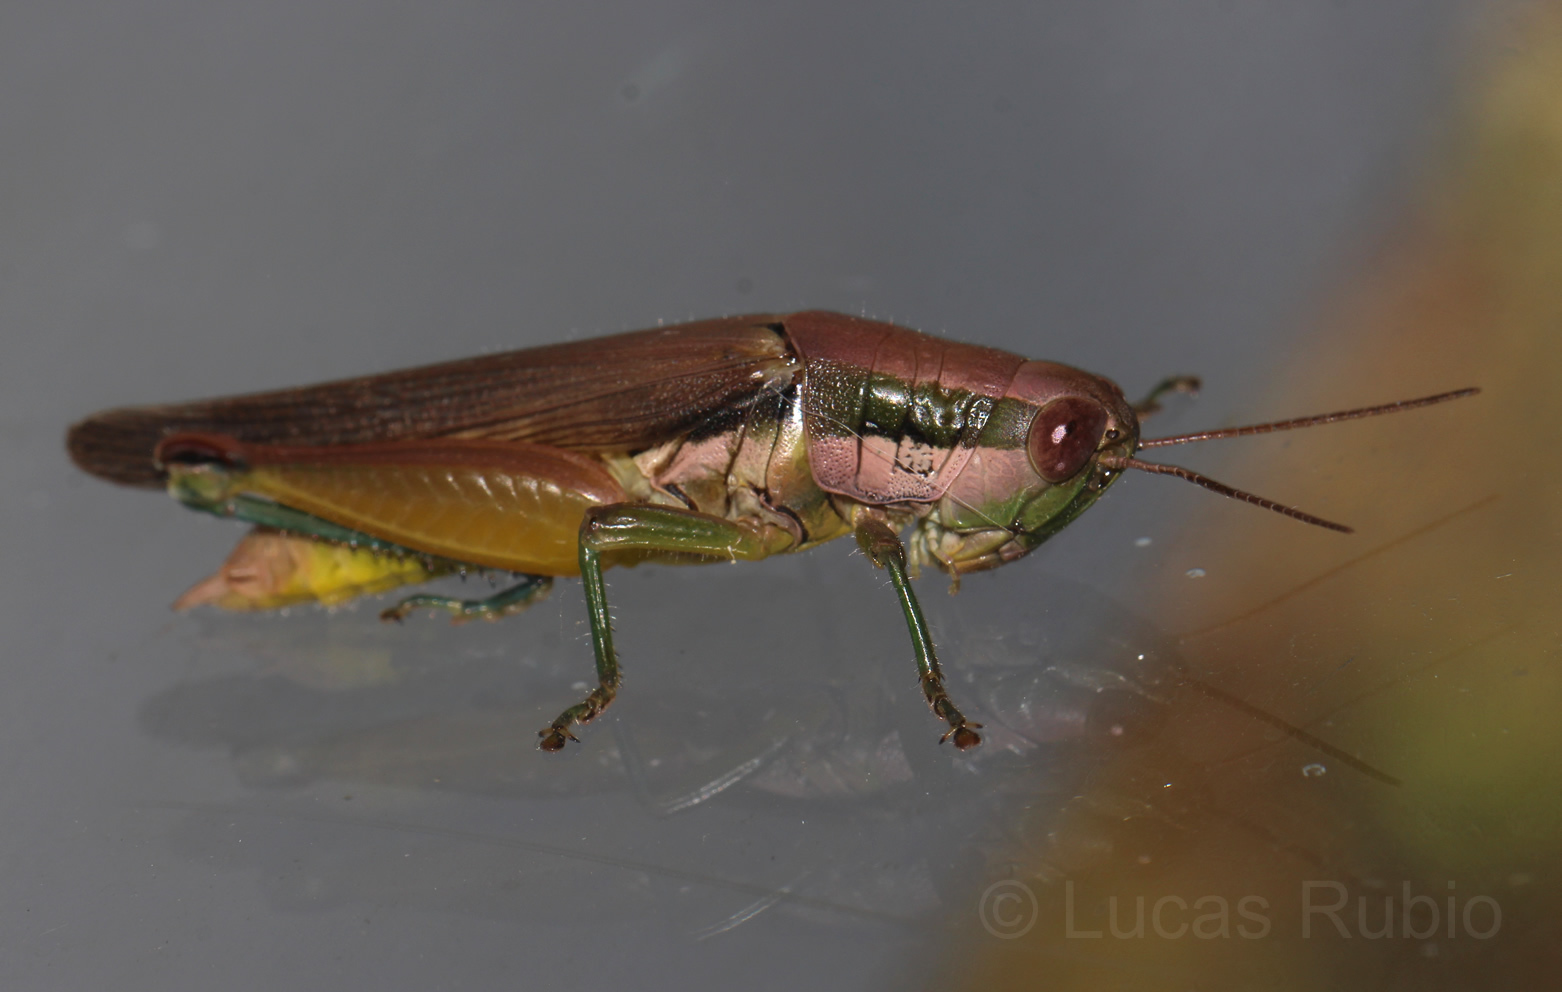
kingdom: Animalia
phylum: Arthropoda
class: Insecta
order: Orthoptera
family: Acrididae
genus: Scotussa
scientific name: Scotussa liebermanni
